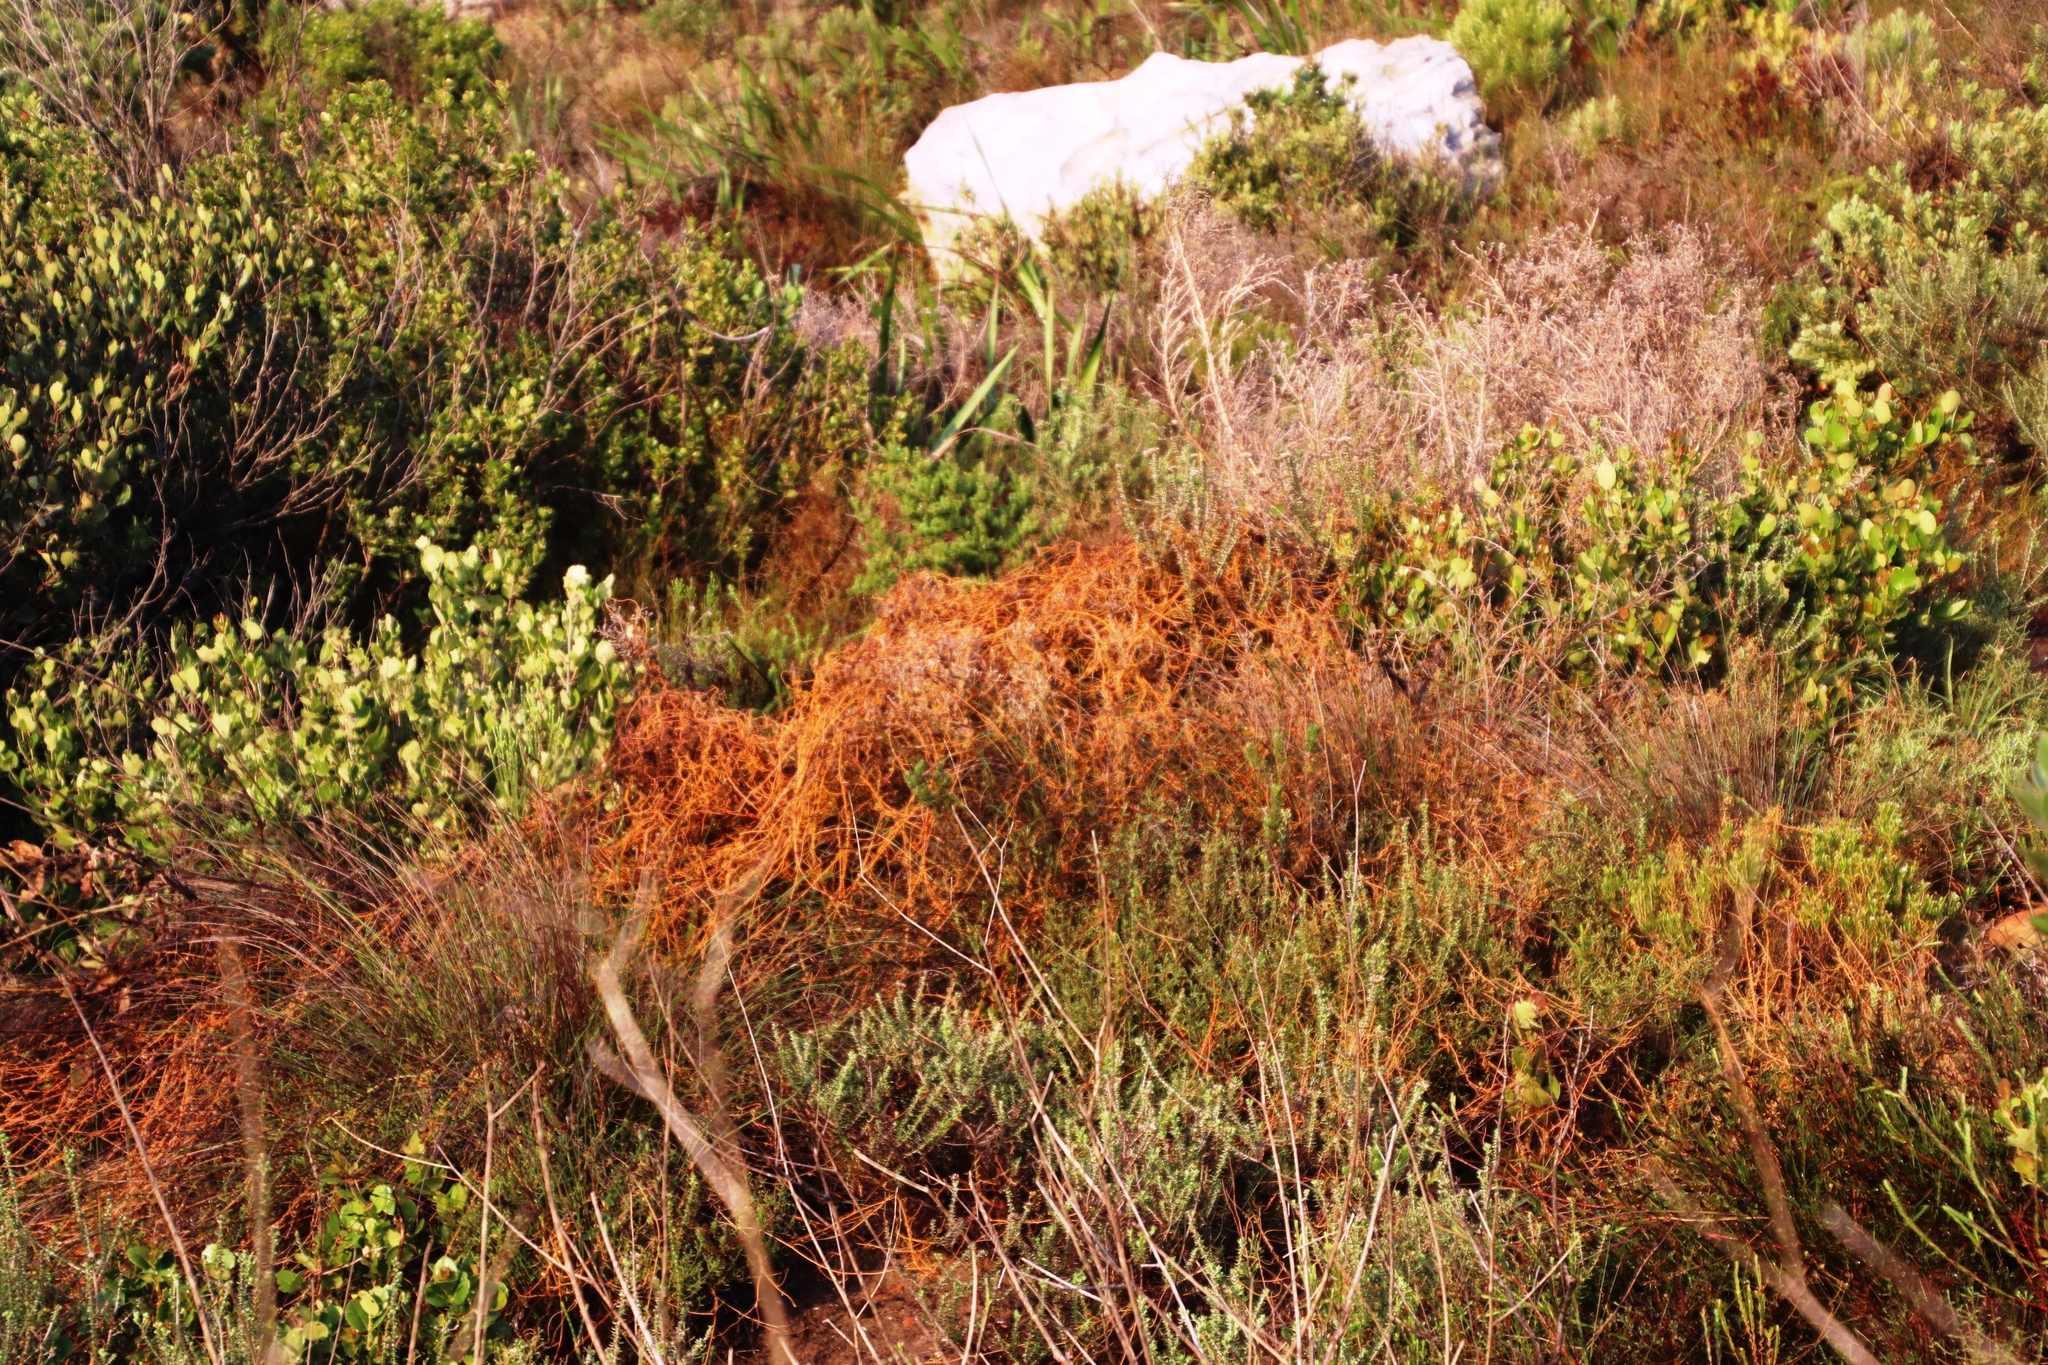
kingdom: Plantae
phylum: Tracheophyta
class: Magnoliopsida
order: Laurales
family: Lauraceae
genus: Cassytha
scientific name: Cassytha ciliolata
